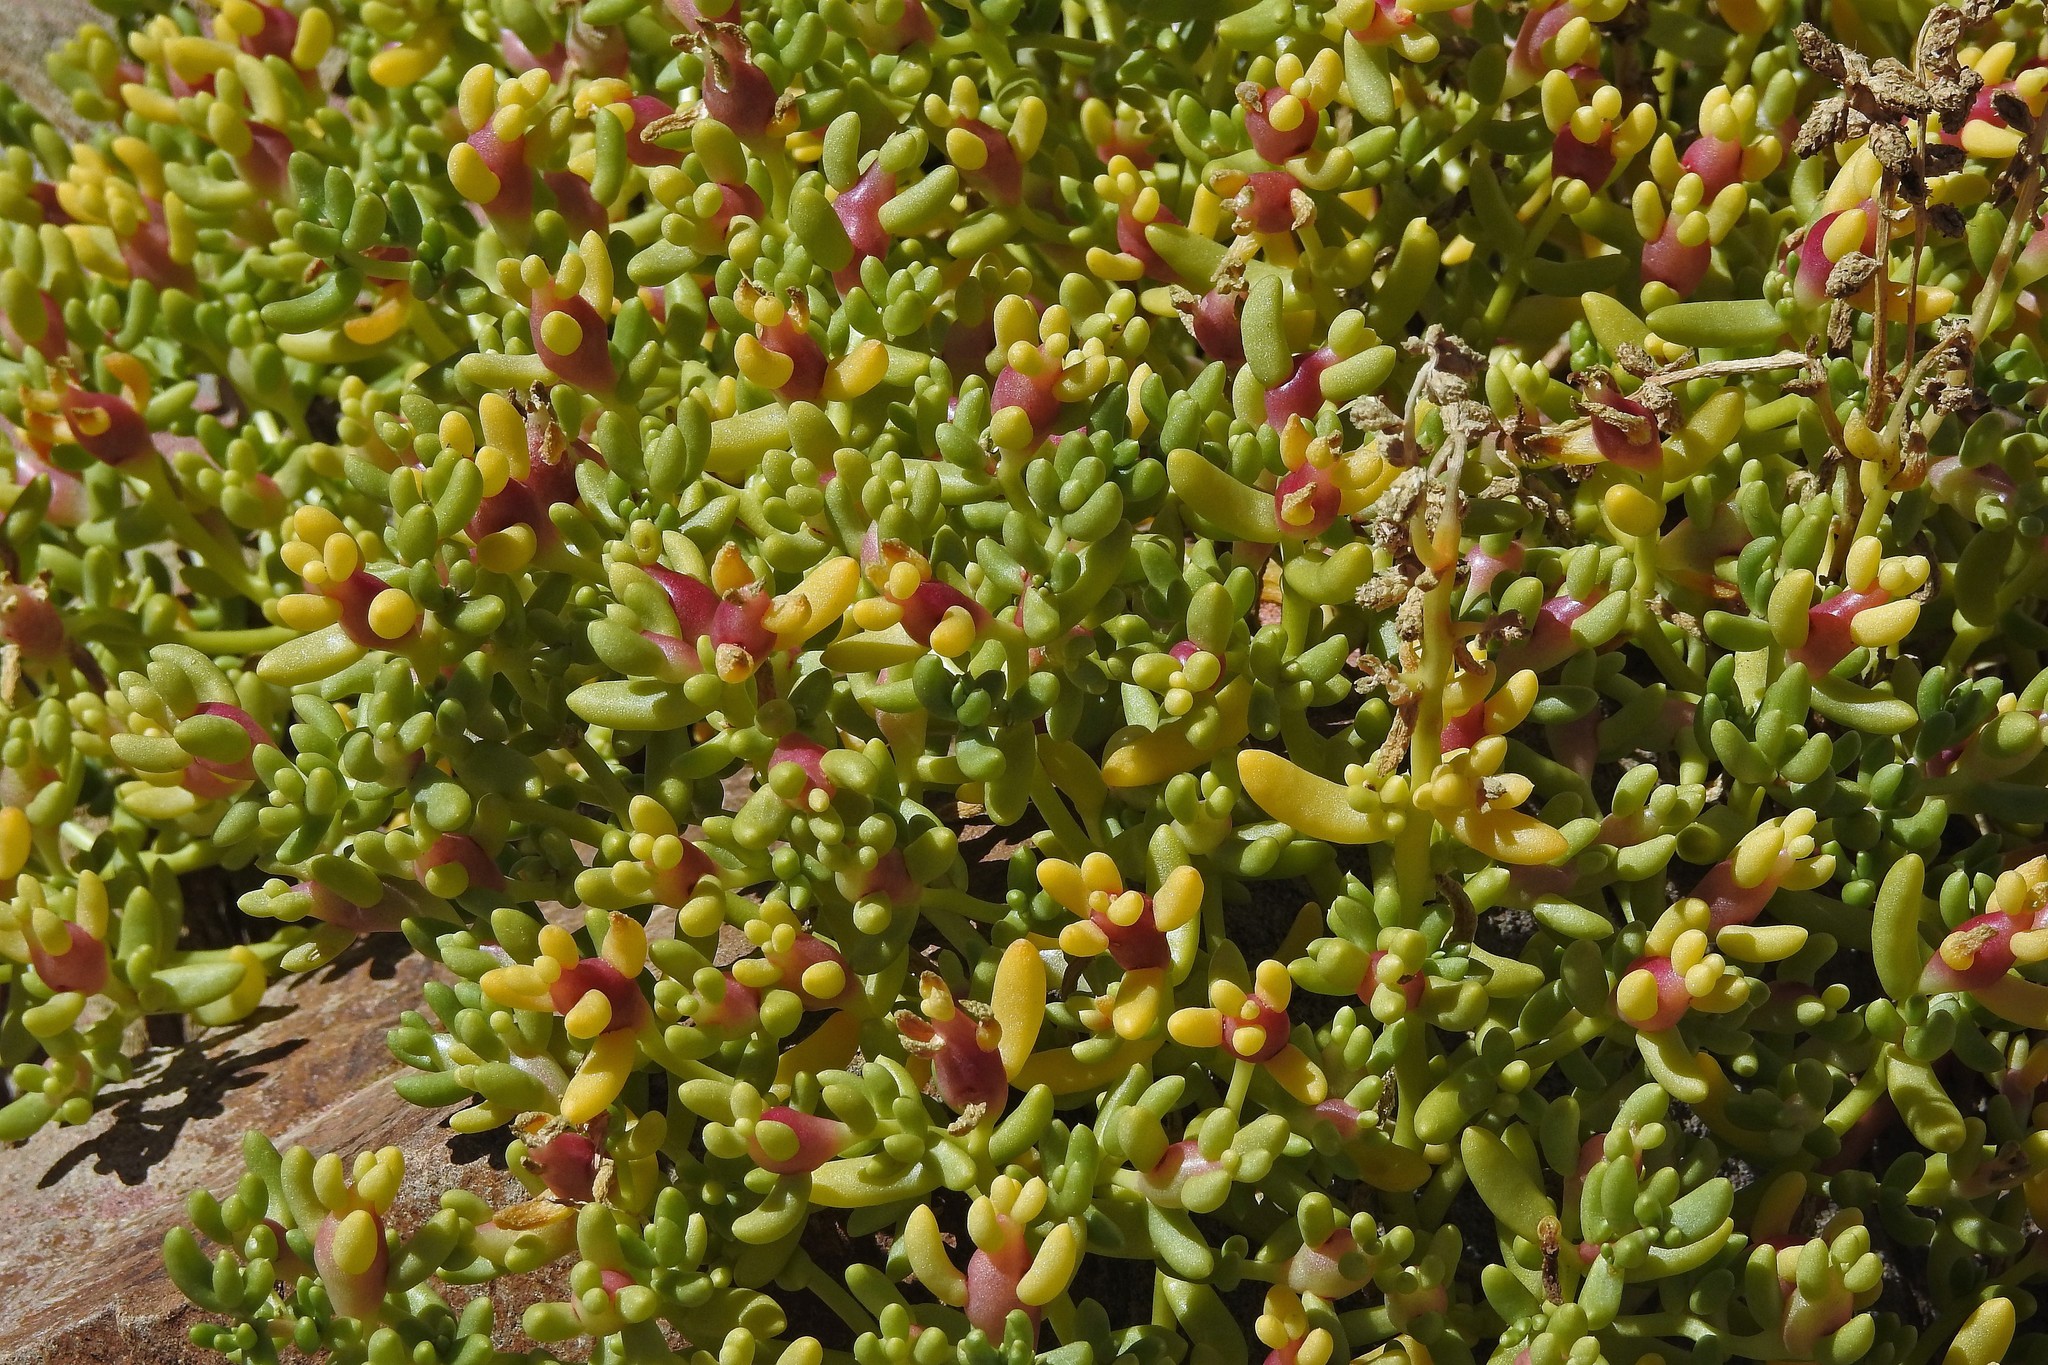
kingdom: Plantae
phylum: Tracheophyta
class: Magnoliopsida
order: Caryophyllales
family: Halophytaceae
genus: Halophytum
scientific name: Halophytum ameghinoi
